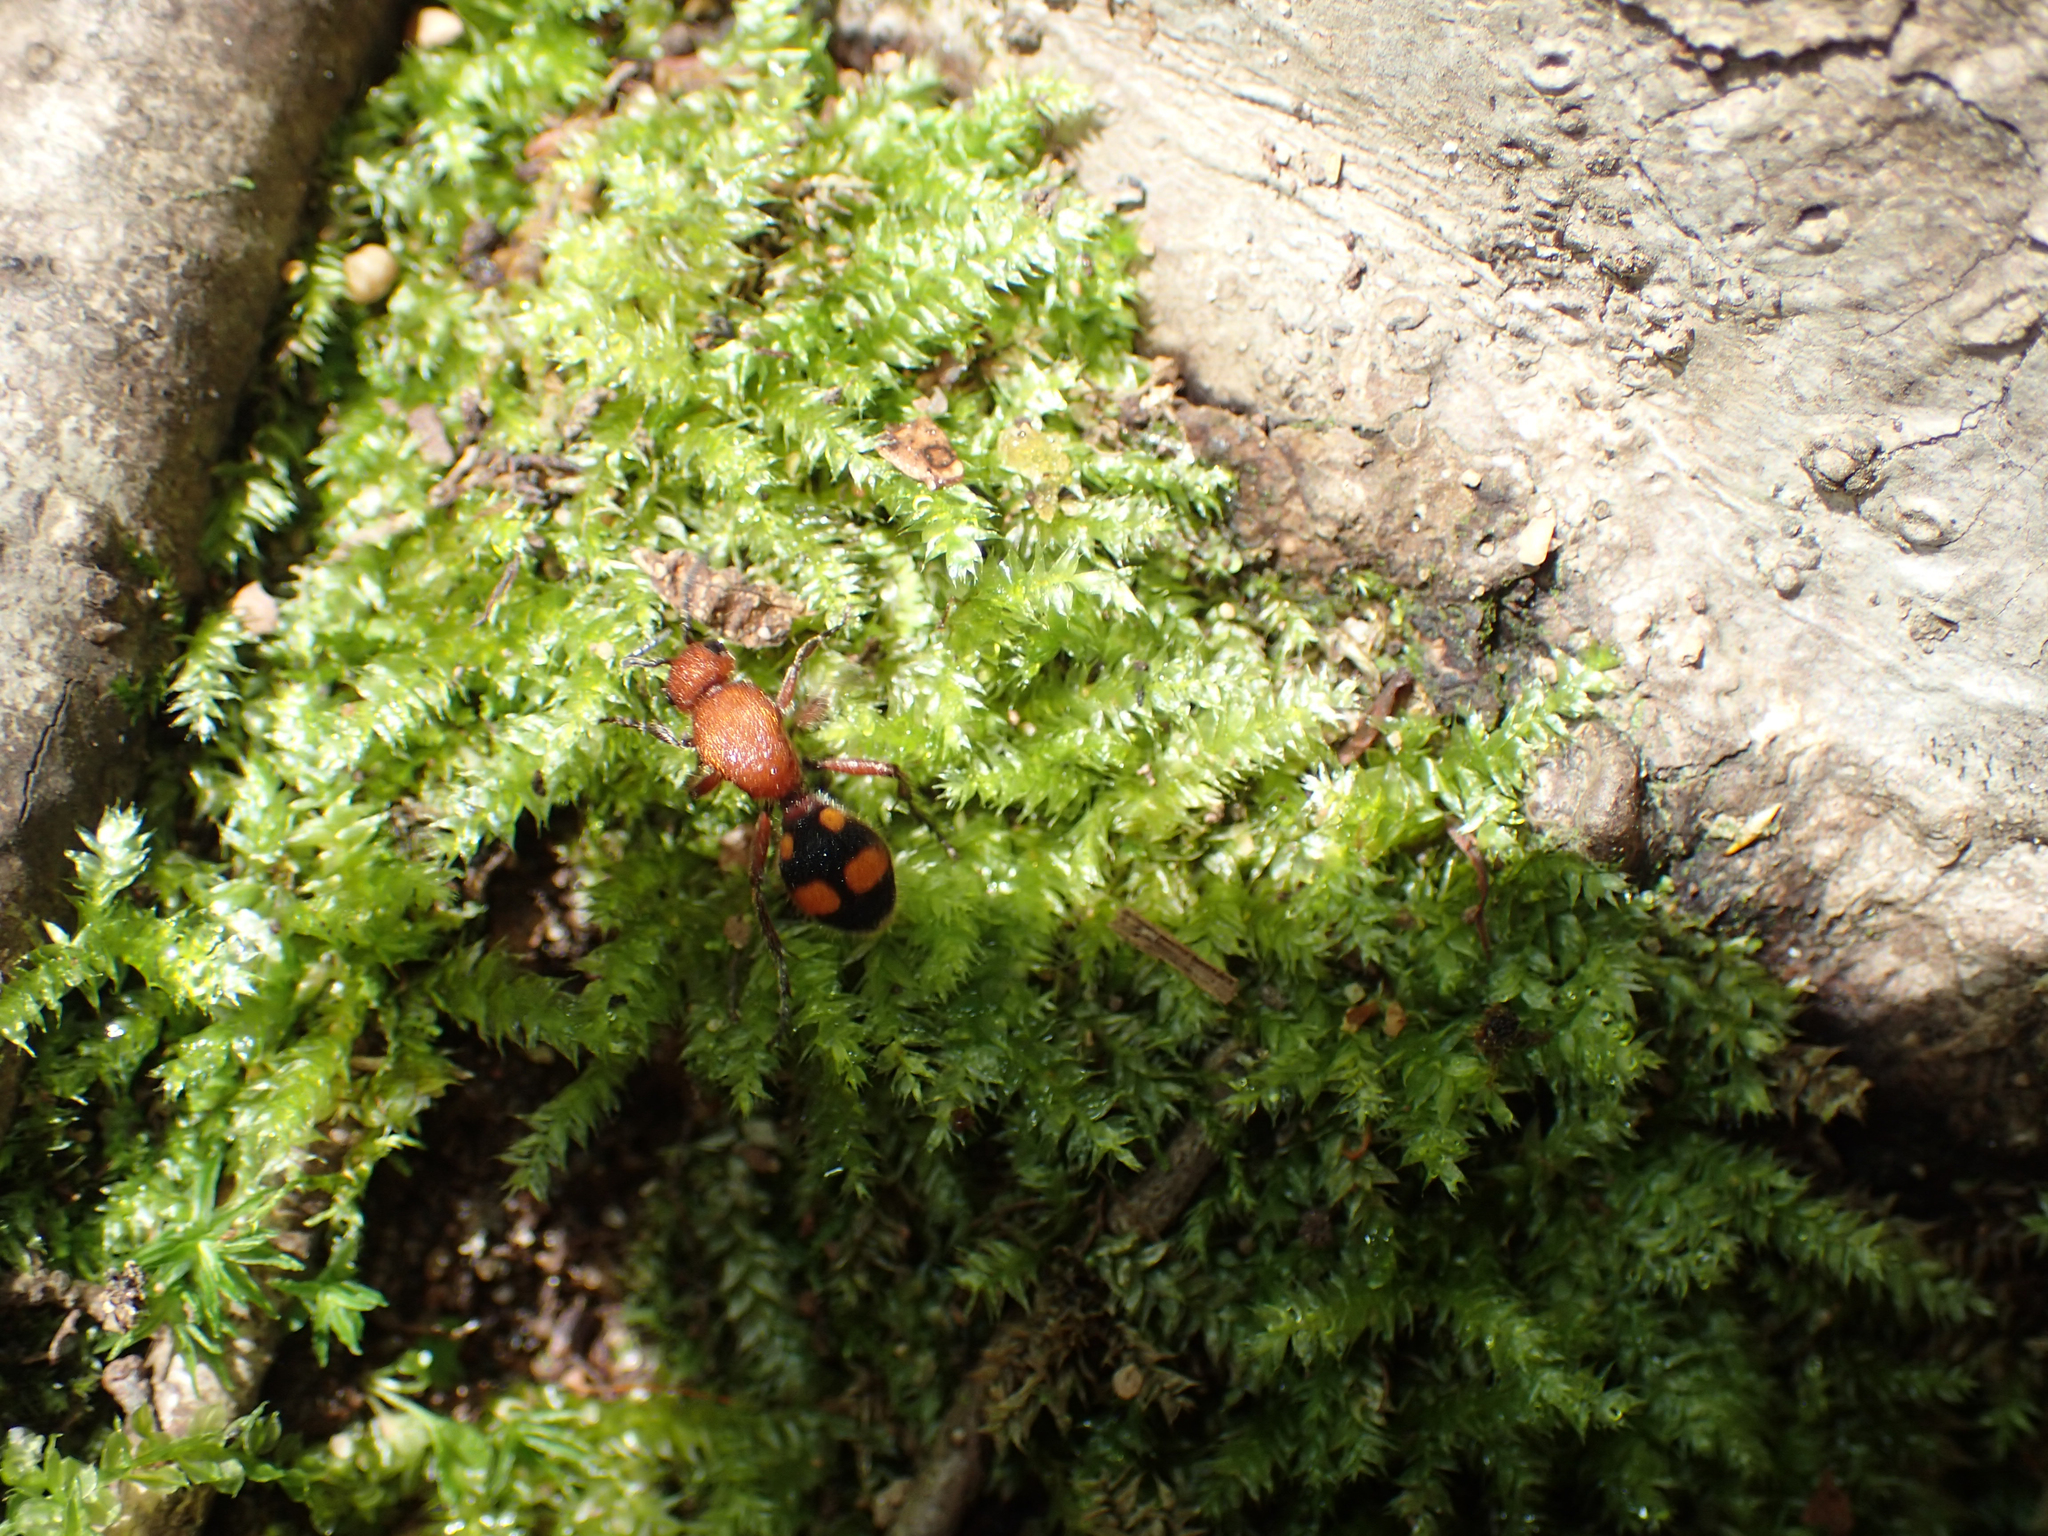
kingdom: Animalia
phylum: Arthropoda
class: Insecta
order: Hymenoptera
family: Mutillidae
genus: Dasymutilla
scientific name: Dasymutilla
